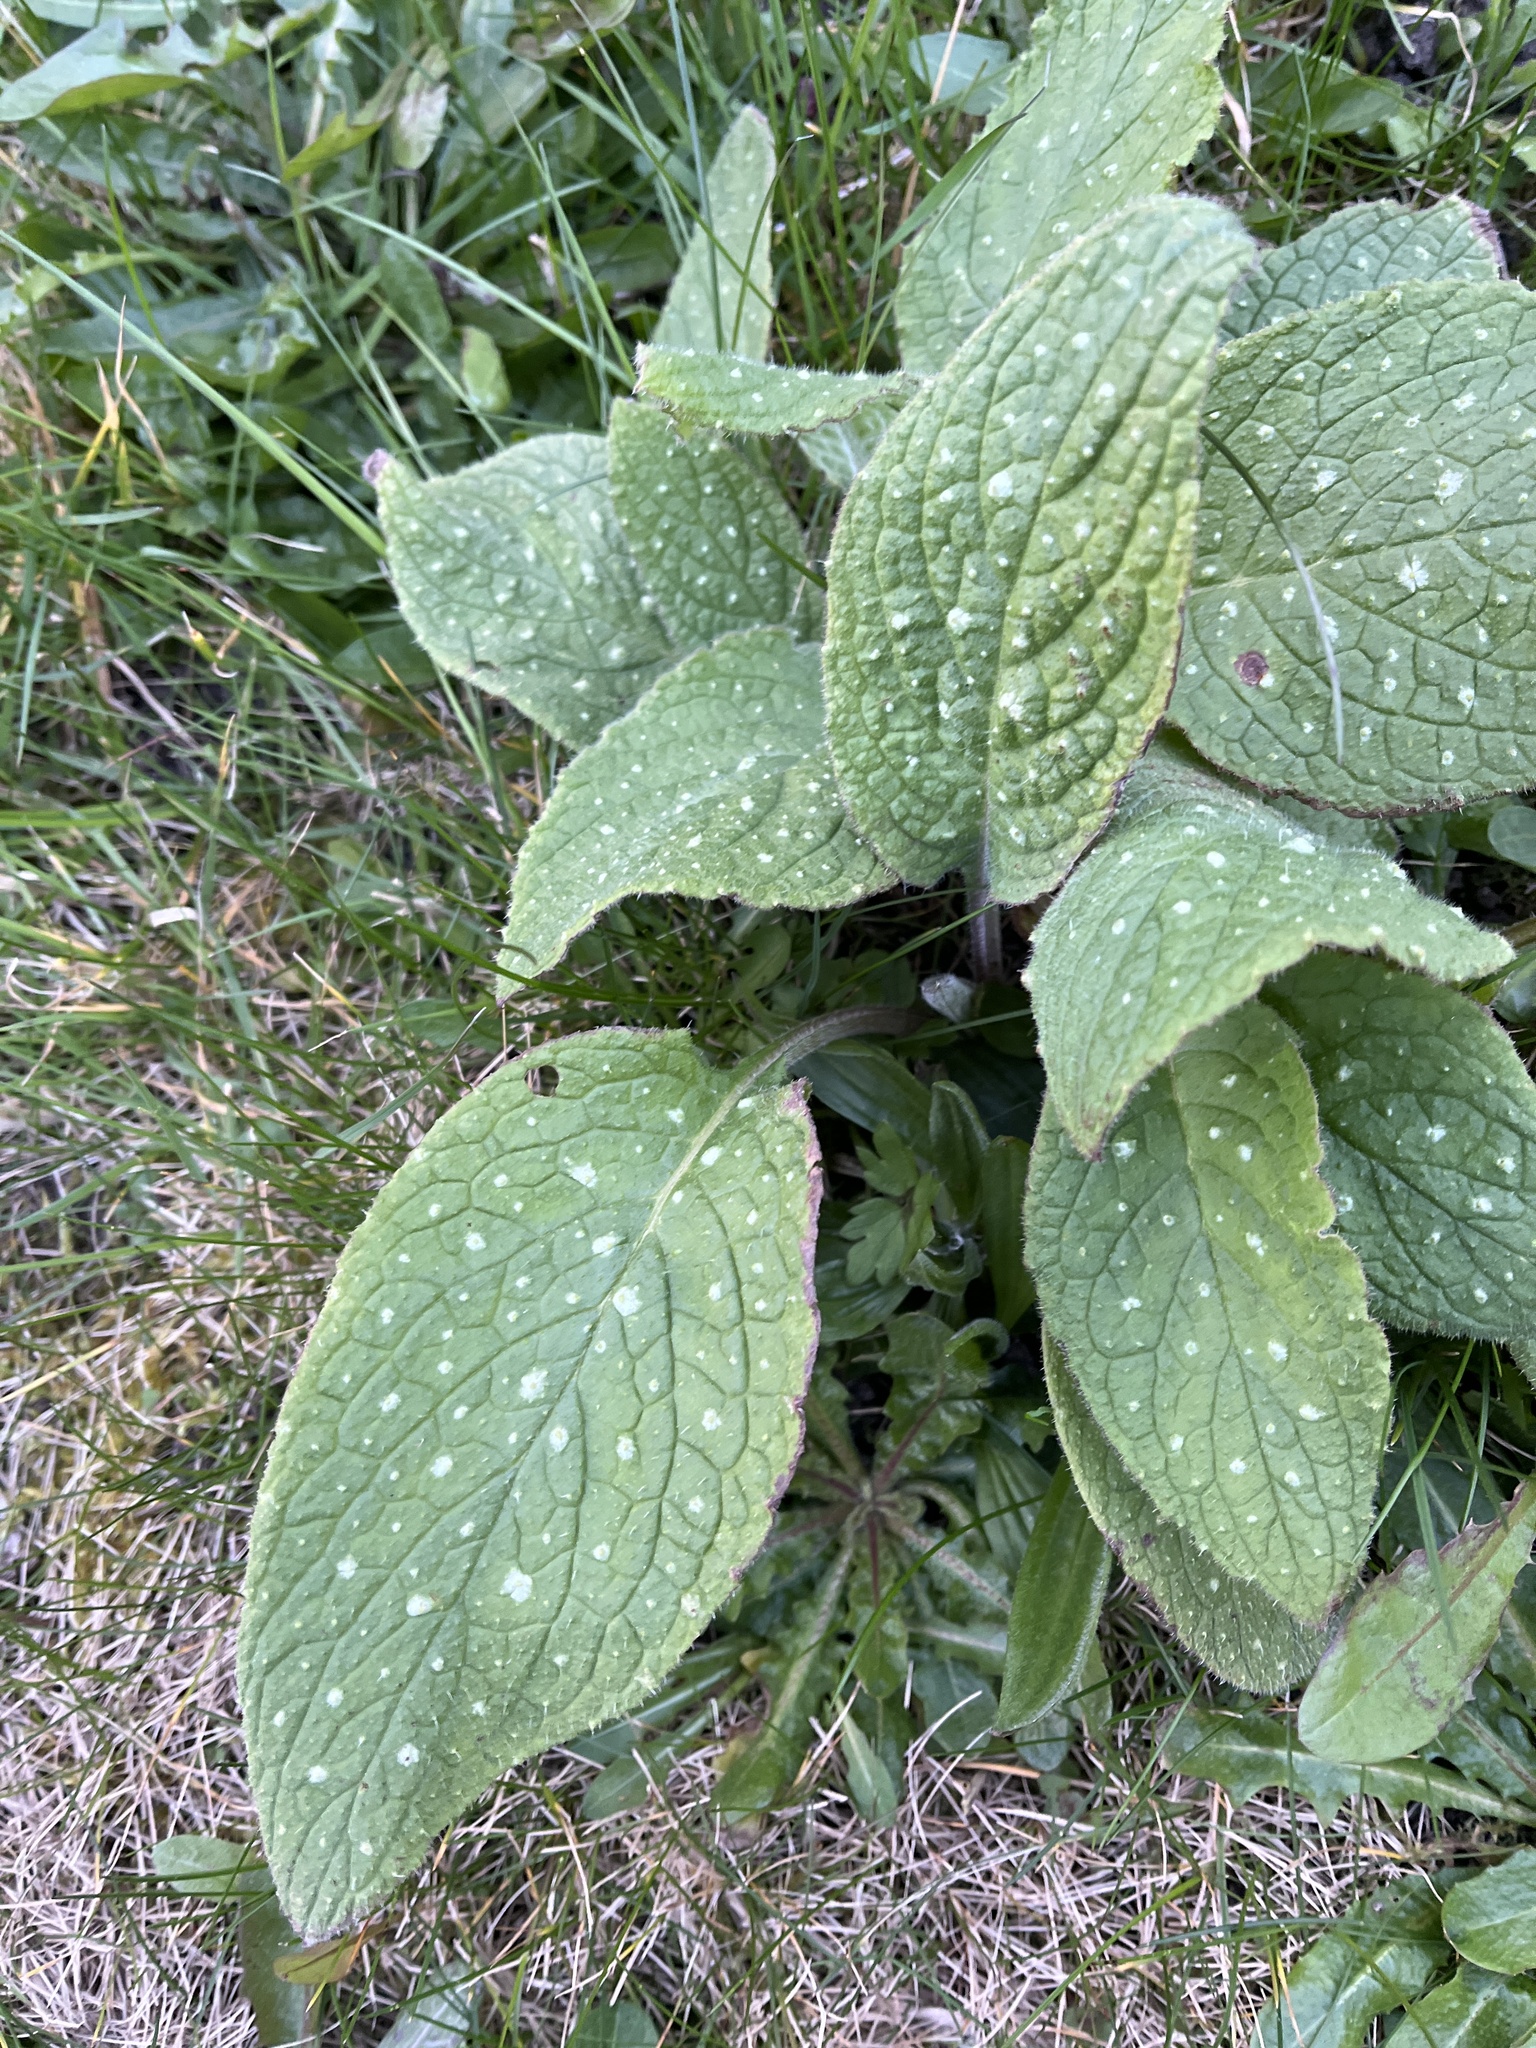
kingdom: Plantae
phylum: Tracheophyta
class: Magnoliopsida
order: Boraginales
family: Boraginaceae
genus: Pentaglottis
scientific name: Pentaglottis sempervirens
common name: Green alkanet
